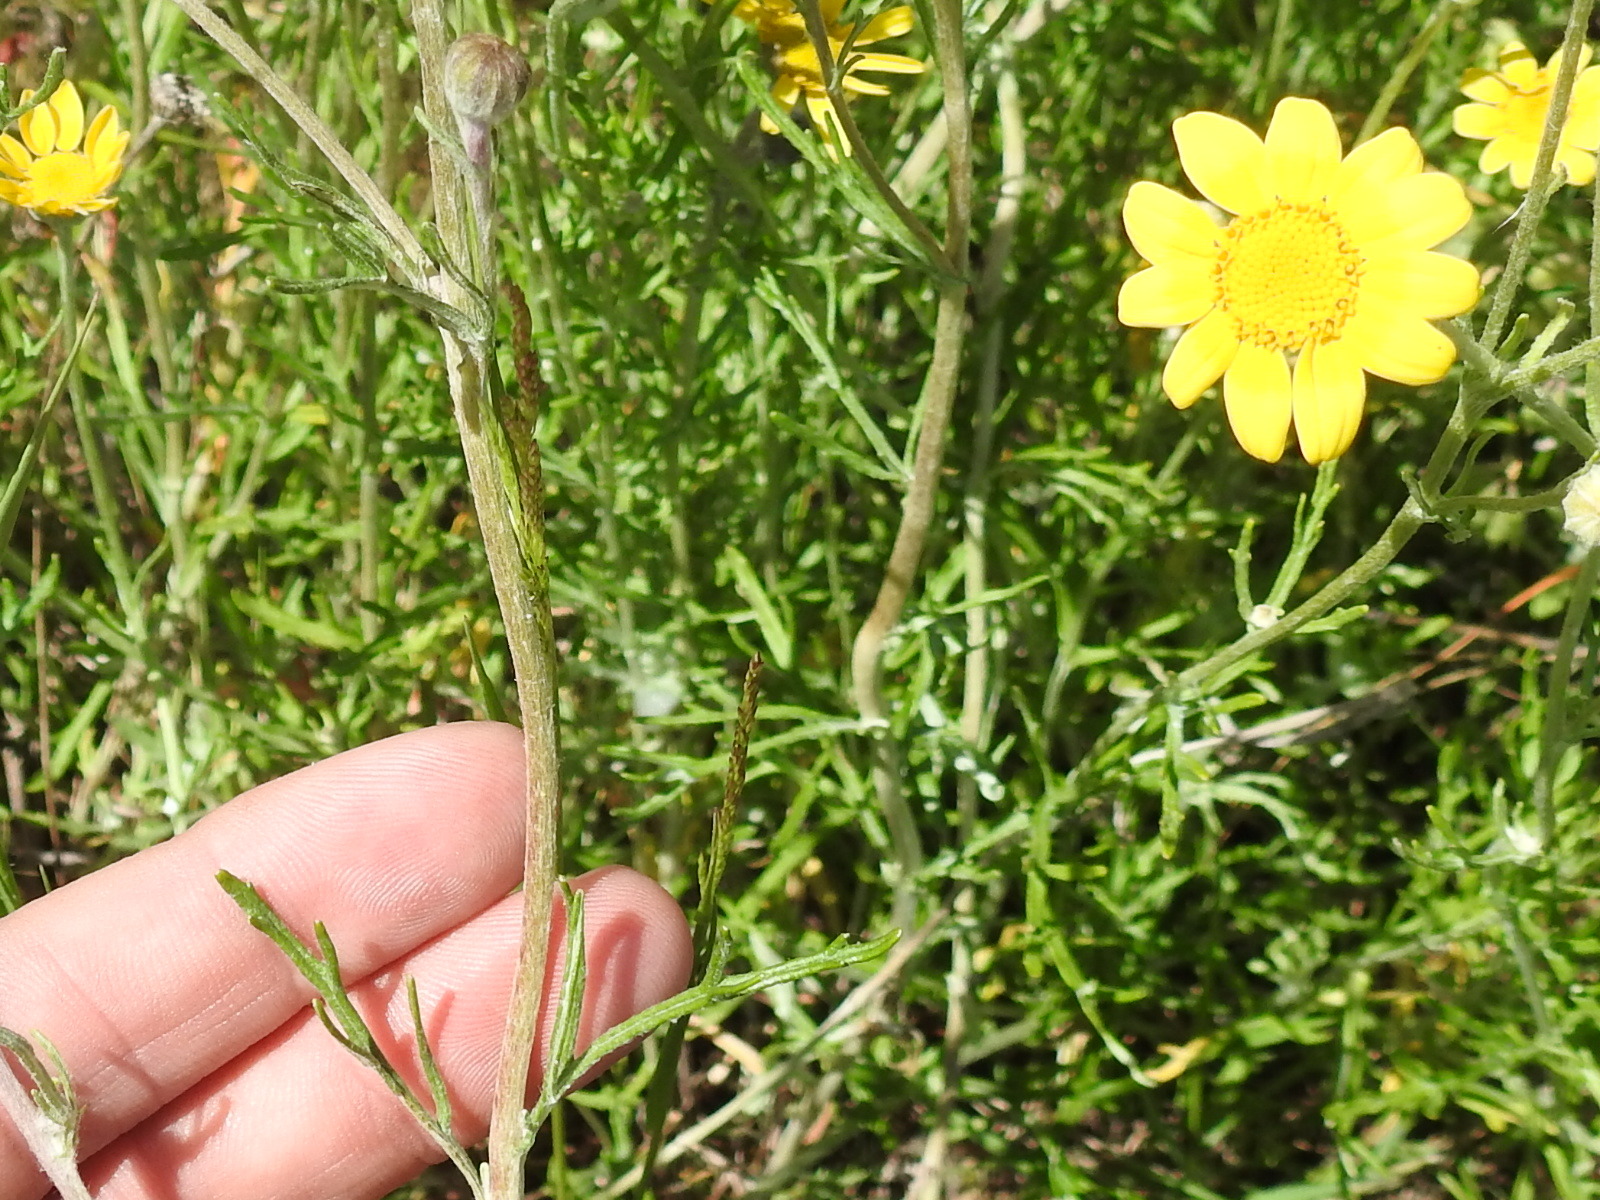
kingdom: Plantae
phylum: Tracheophyta
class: Magnoliopsida
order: Asterales
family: Asteraceae
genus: Eriophyllum
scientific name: Eriophyllum lanatum
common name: Common woolly-sunflower
